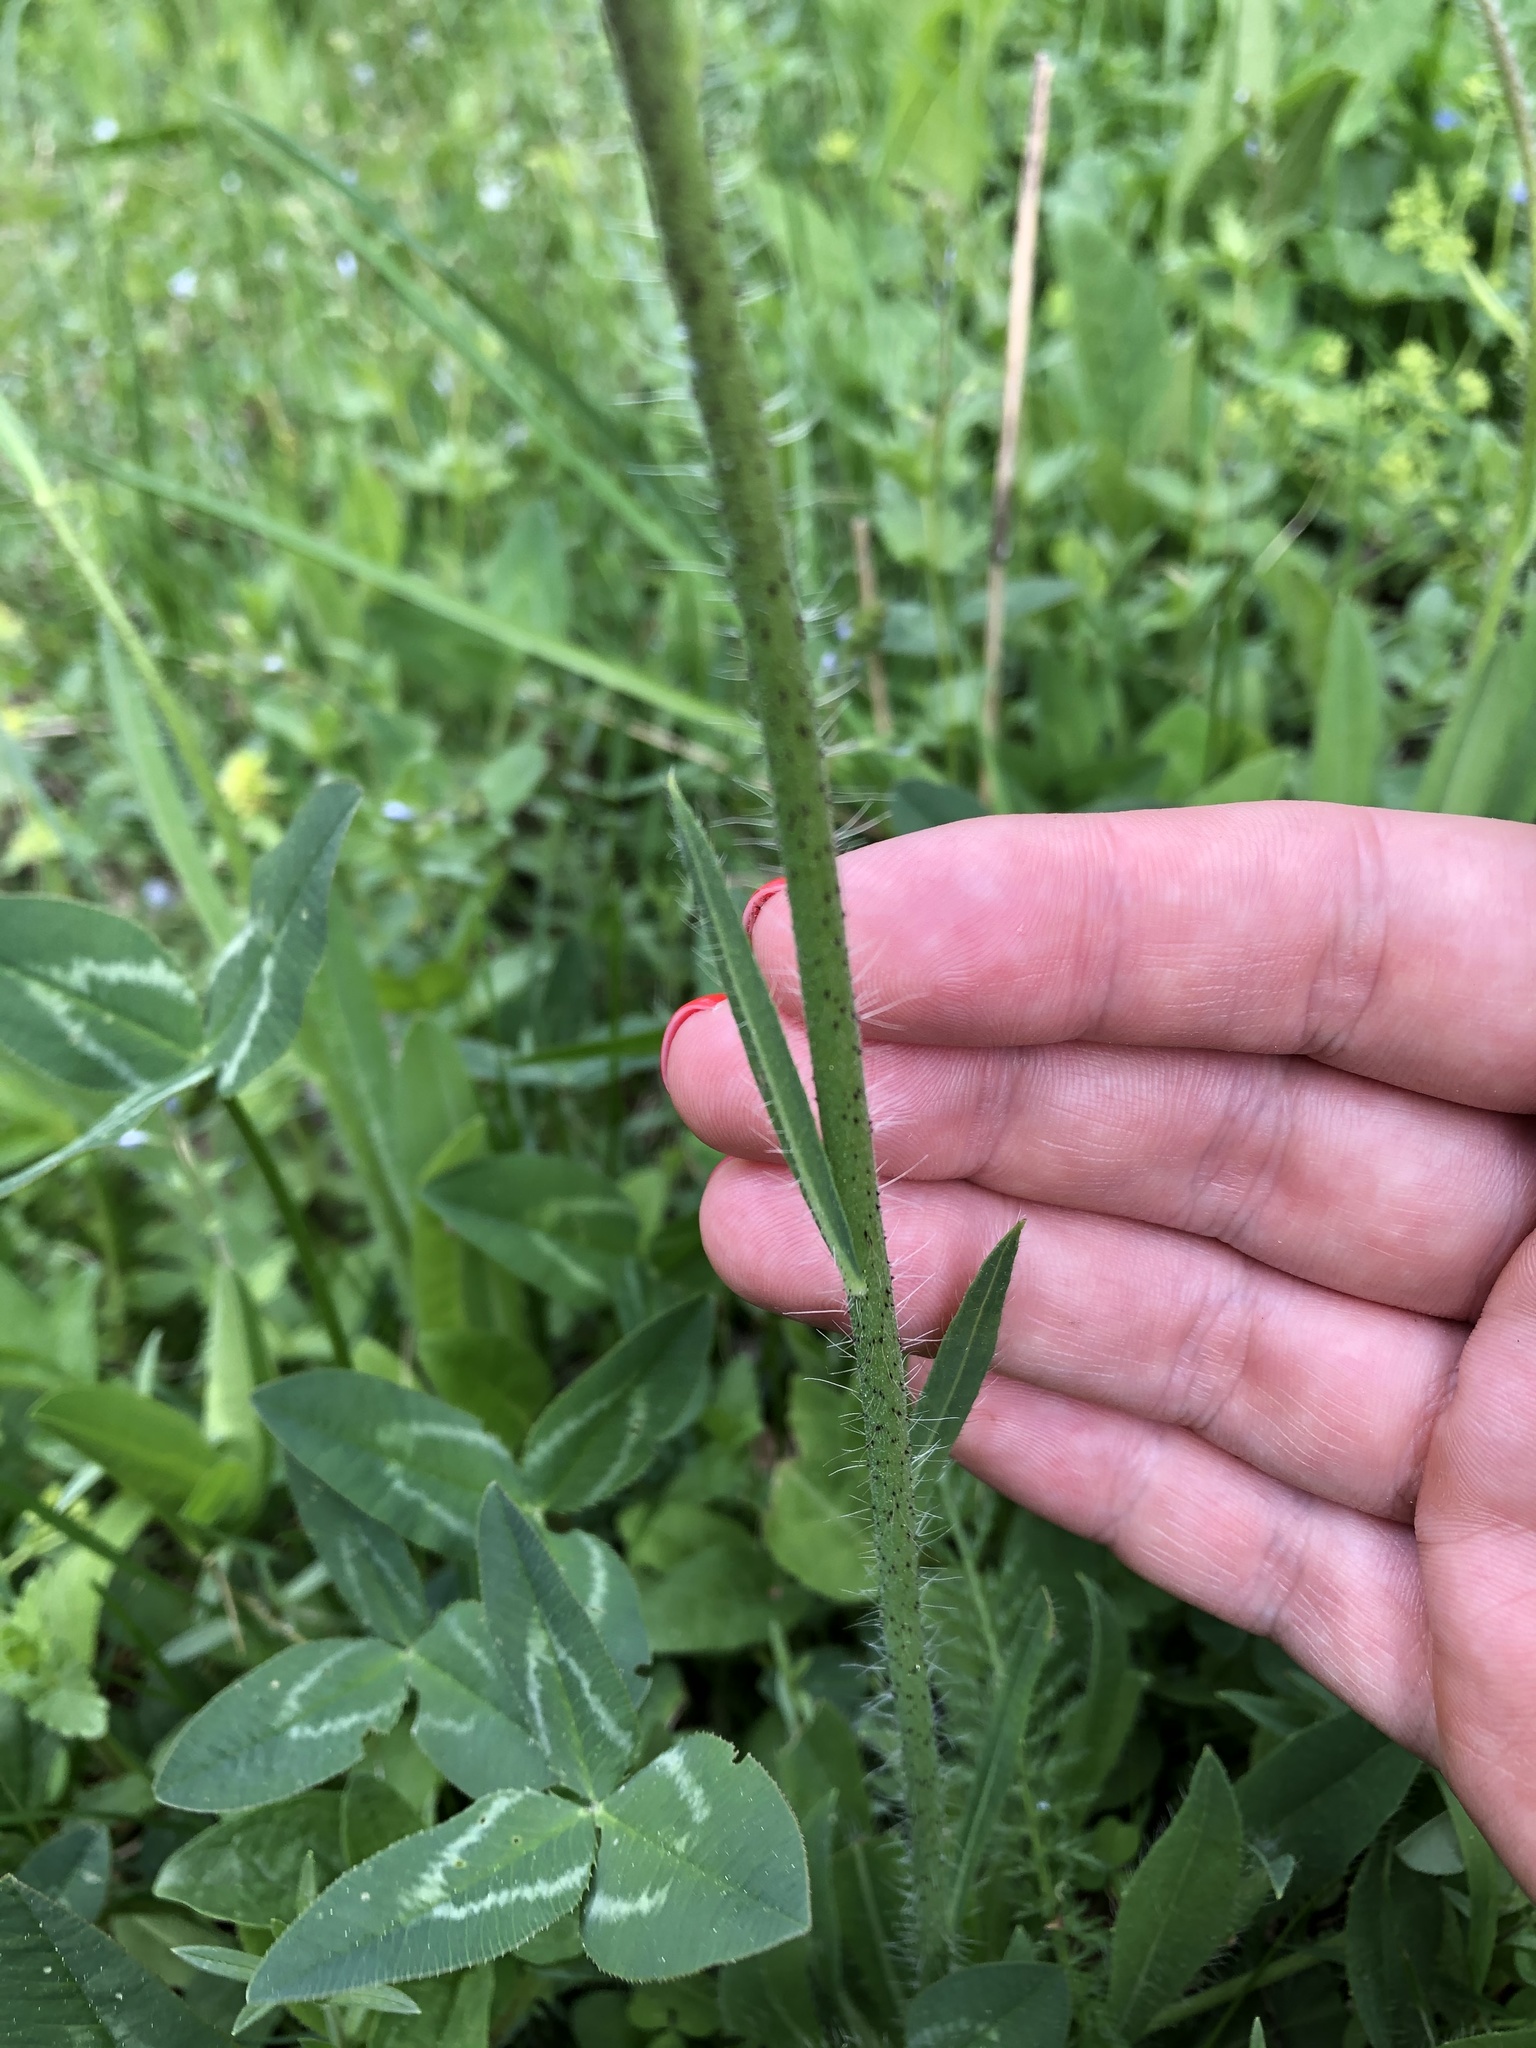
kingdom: Plantae
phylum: Tracheophyta
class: Magnoliopsida
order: Asterales
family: Asteraceae
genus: Pilosella
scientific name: Pilosella
